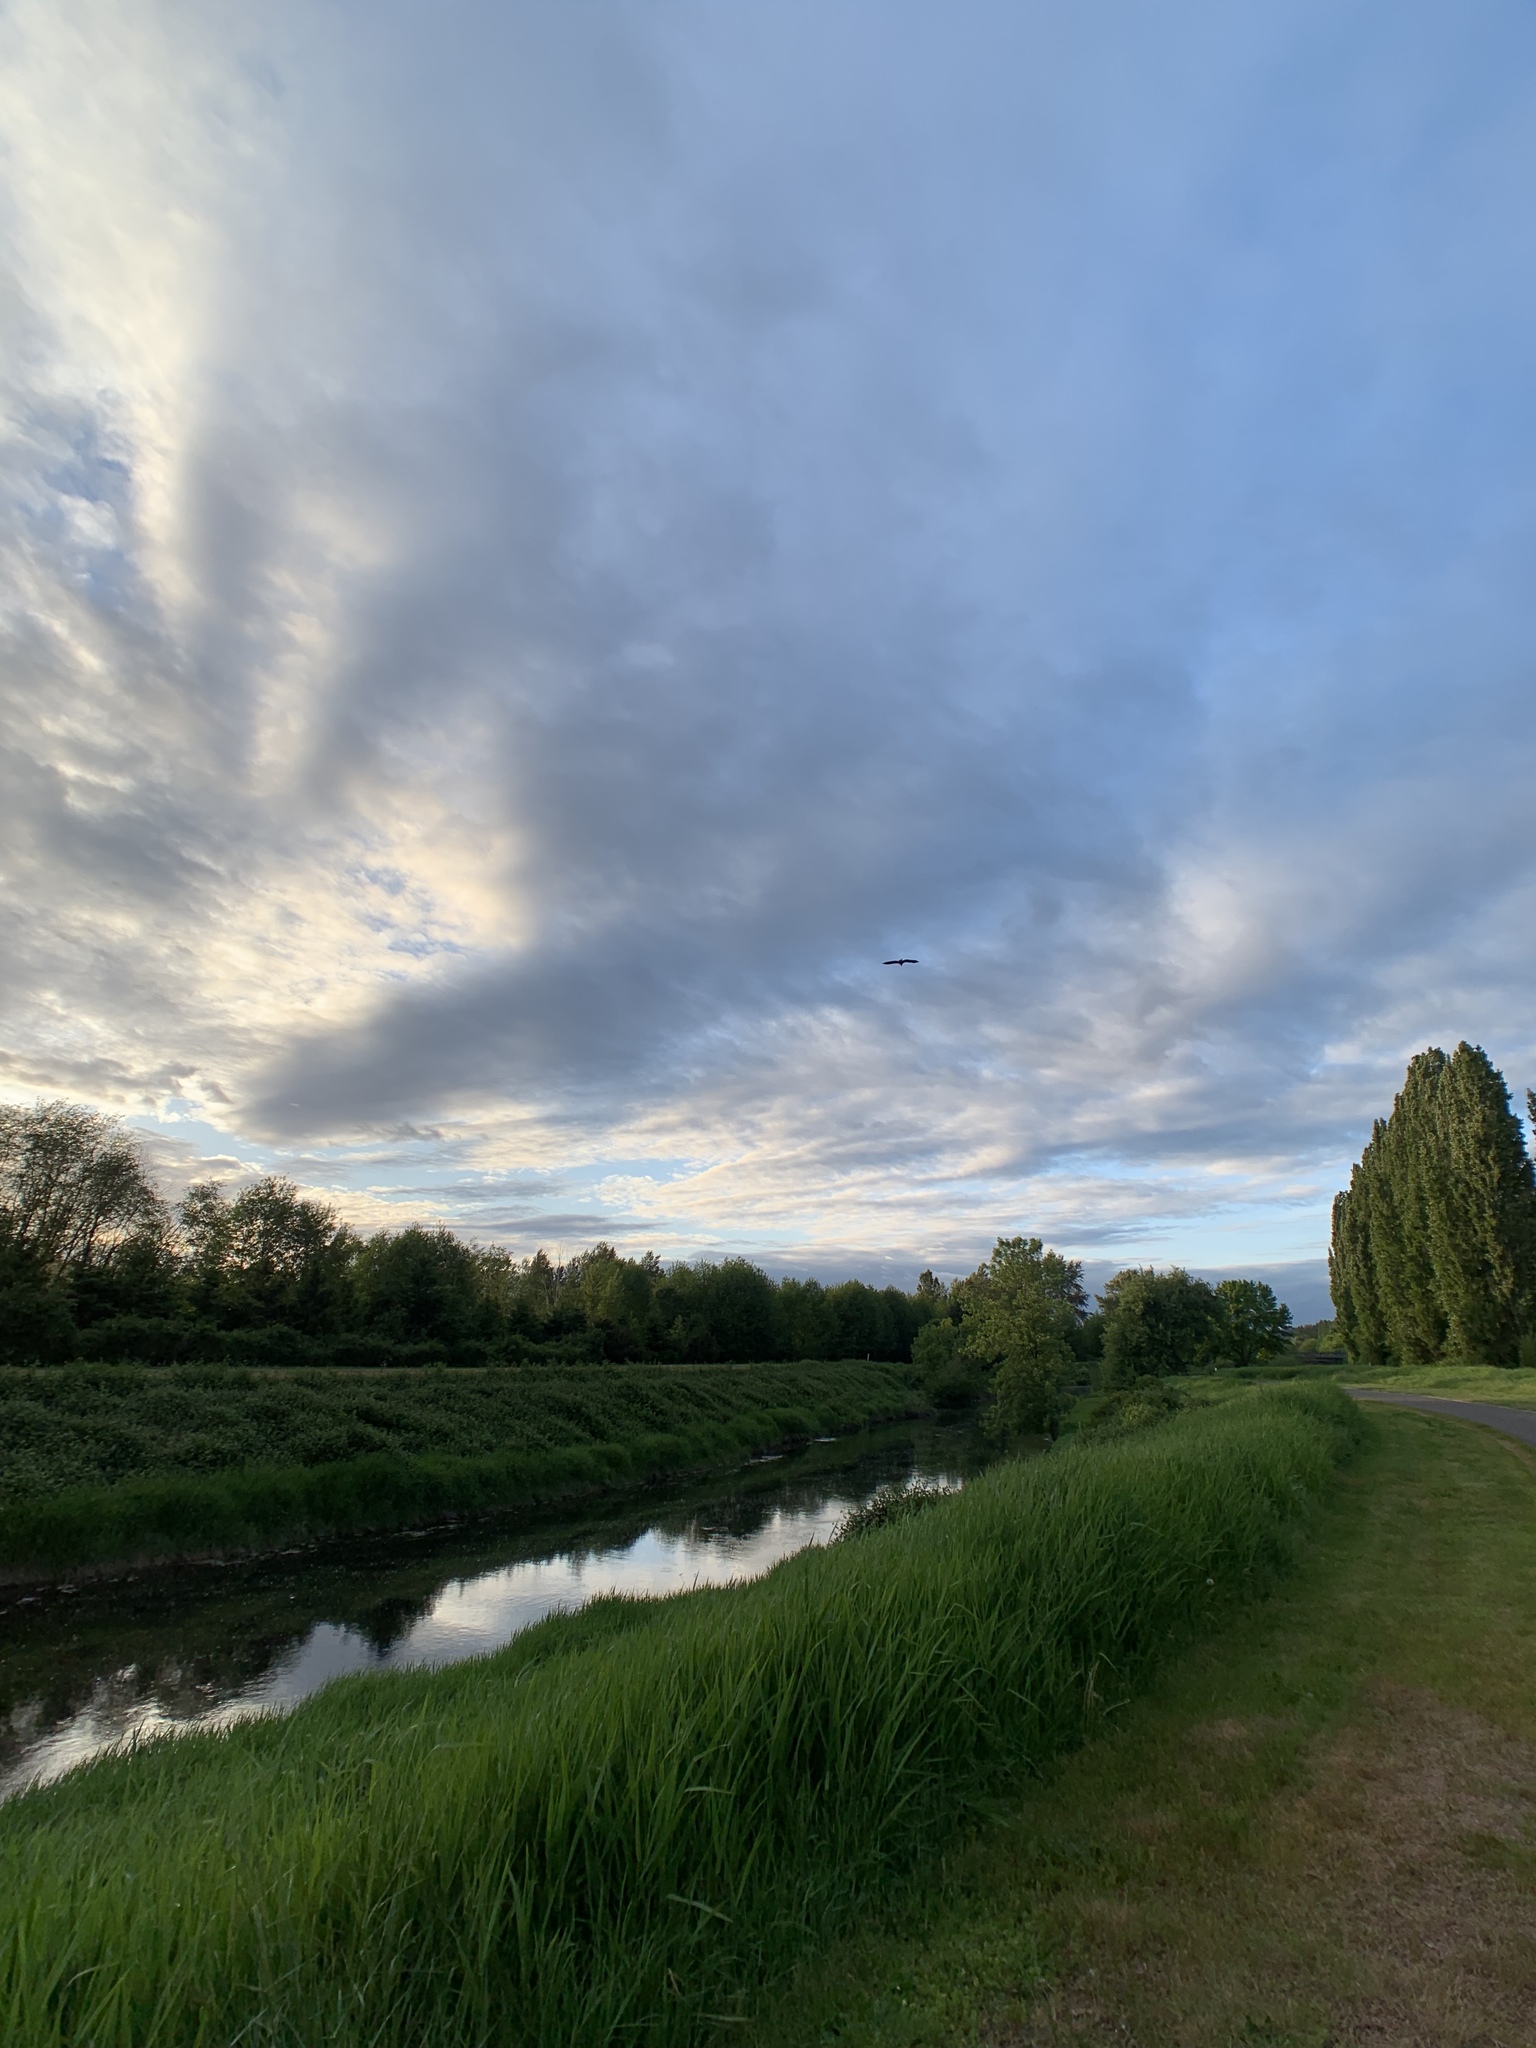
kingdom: Animalia
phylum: Chordata
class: Aves
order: Accipitriformes
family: Accipitridae
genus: Haliaeetus
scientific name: Haliaeetus leucocephalus
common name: Bald eagle
